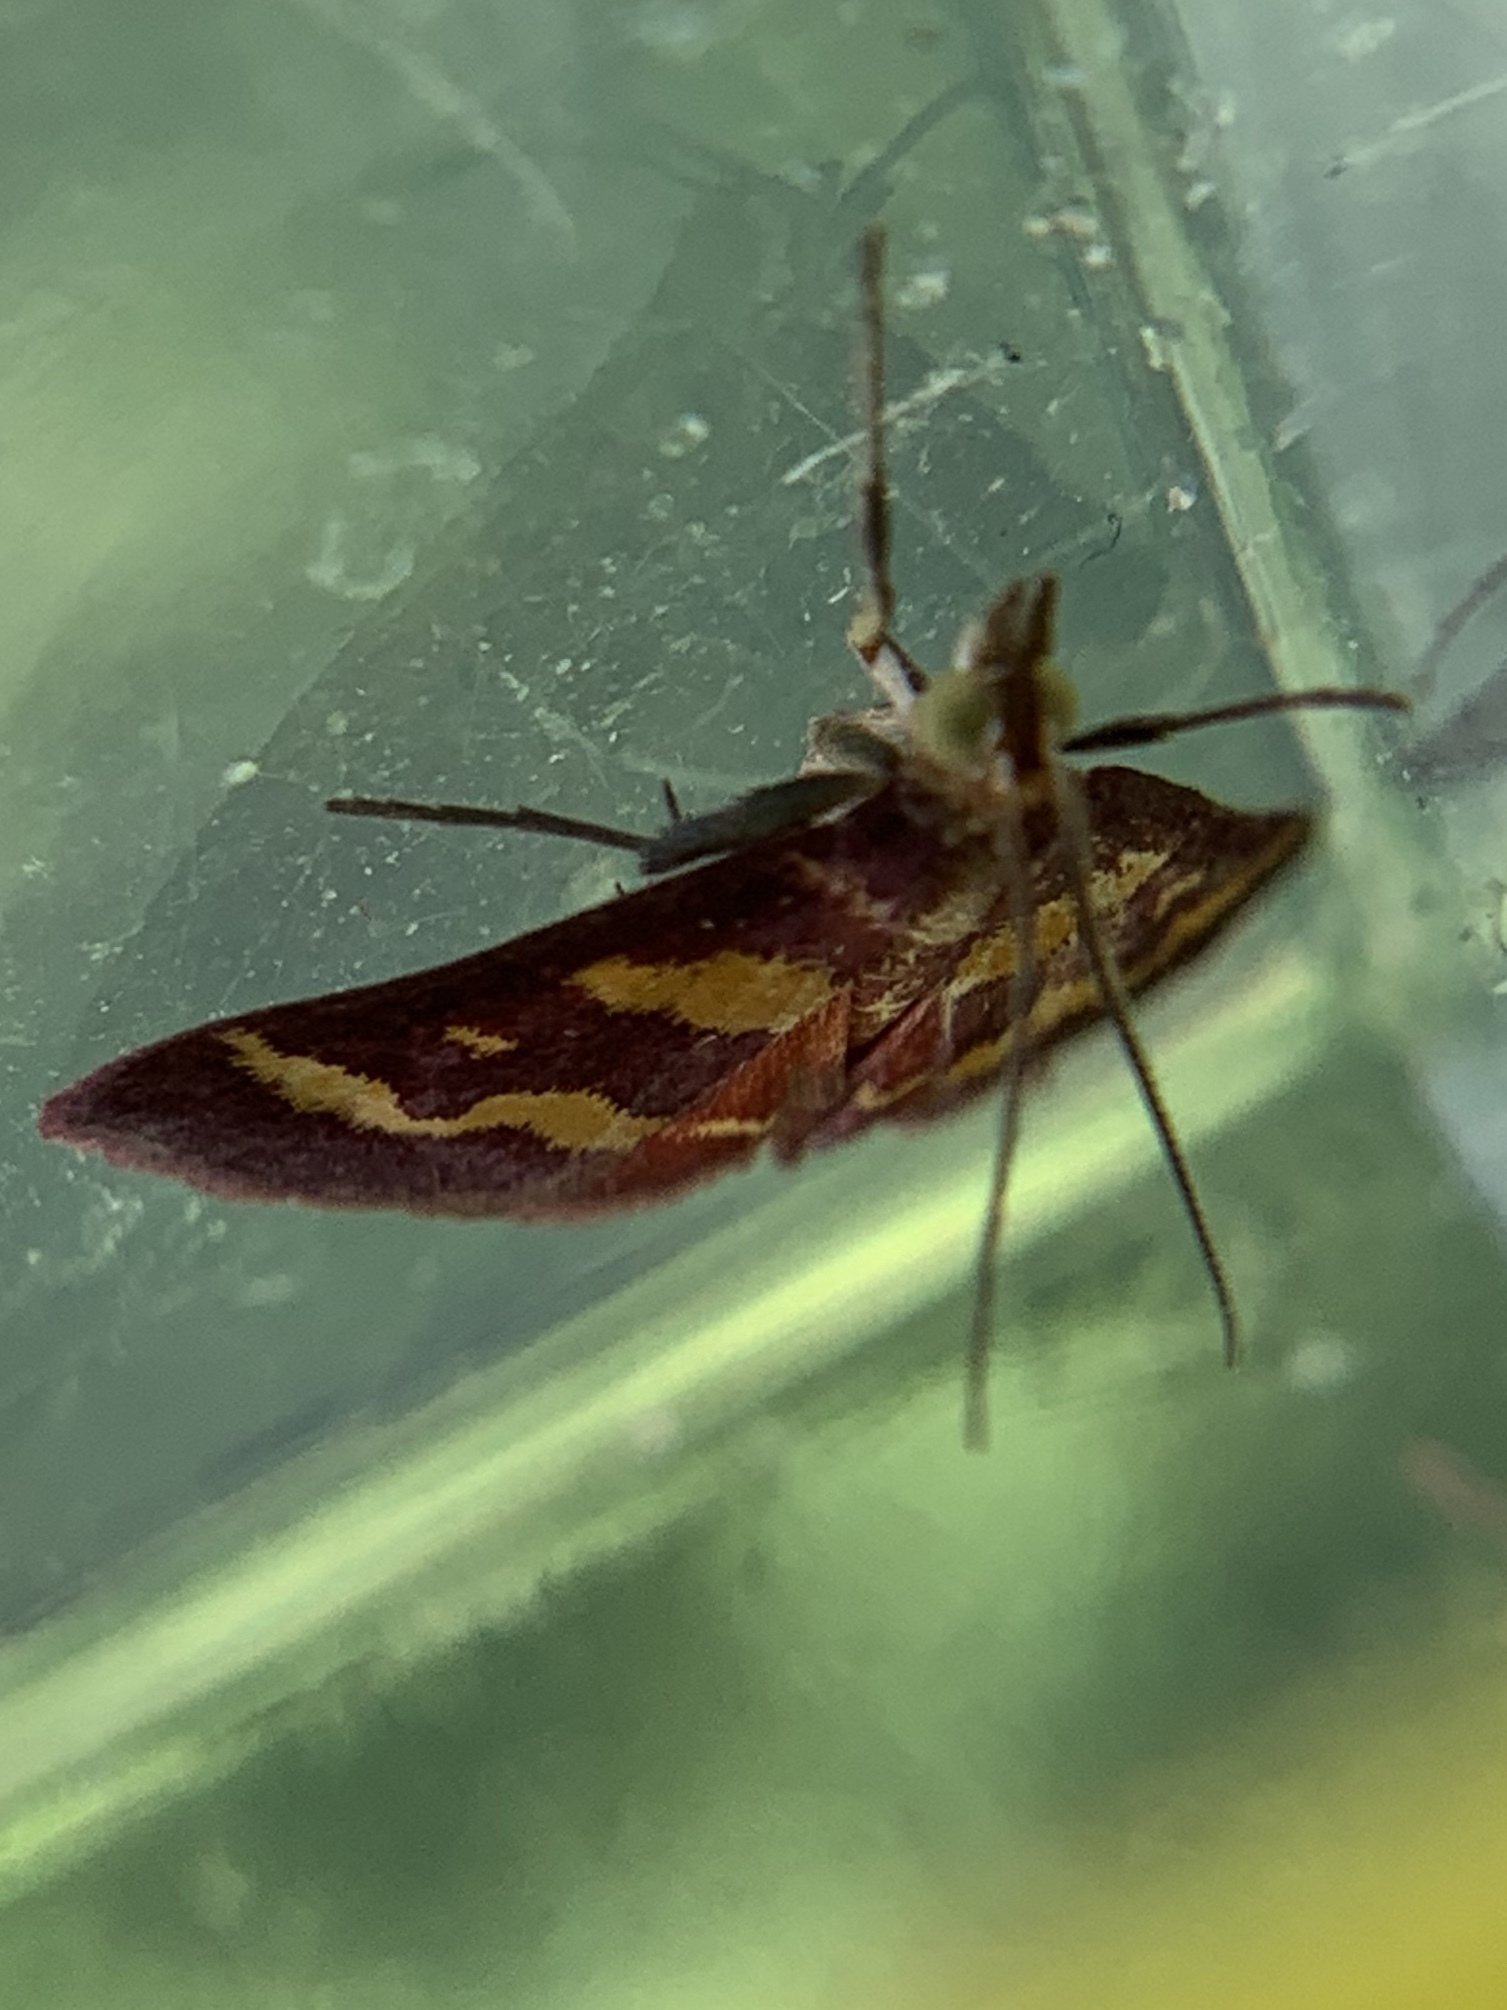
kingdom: Animalia
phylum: Arthropoda
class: Insecta
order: Lepidoptera
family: Crambidae
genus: Pyrausta
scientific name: Pyrausta tyralis
